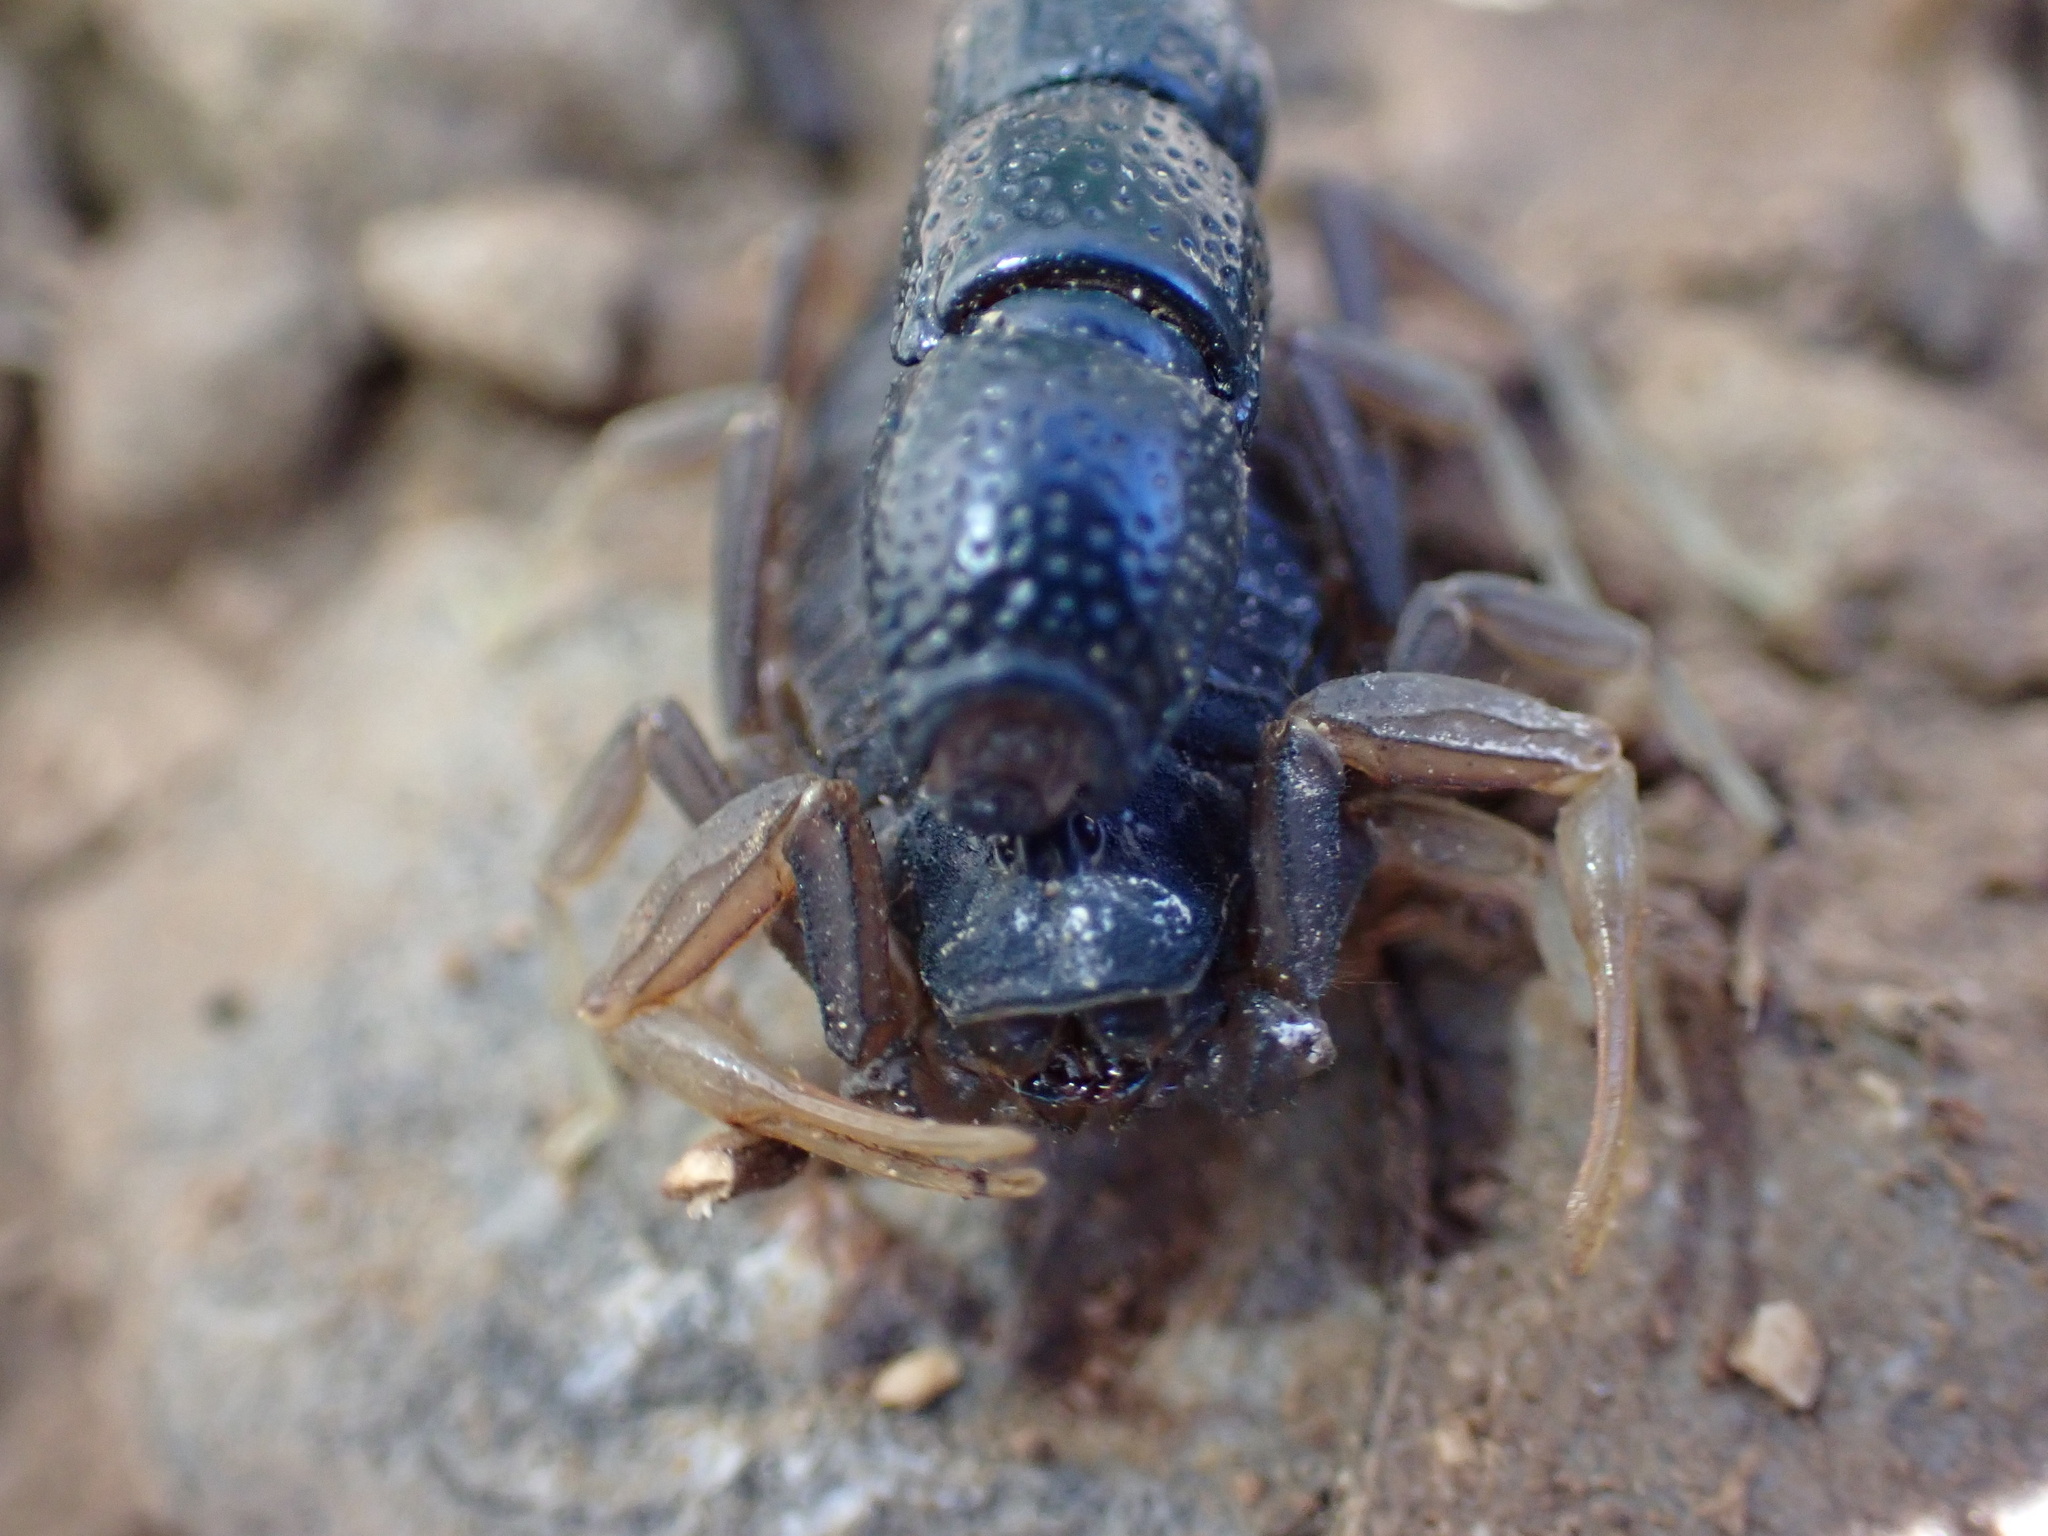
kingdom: Animalia
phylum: Arthropoda
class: Arachnida
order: Scorpiones
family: Buthidae
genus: Orthochirus
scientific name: Orthochirus farzanpayi
